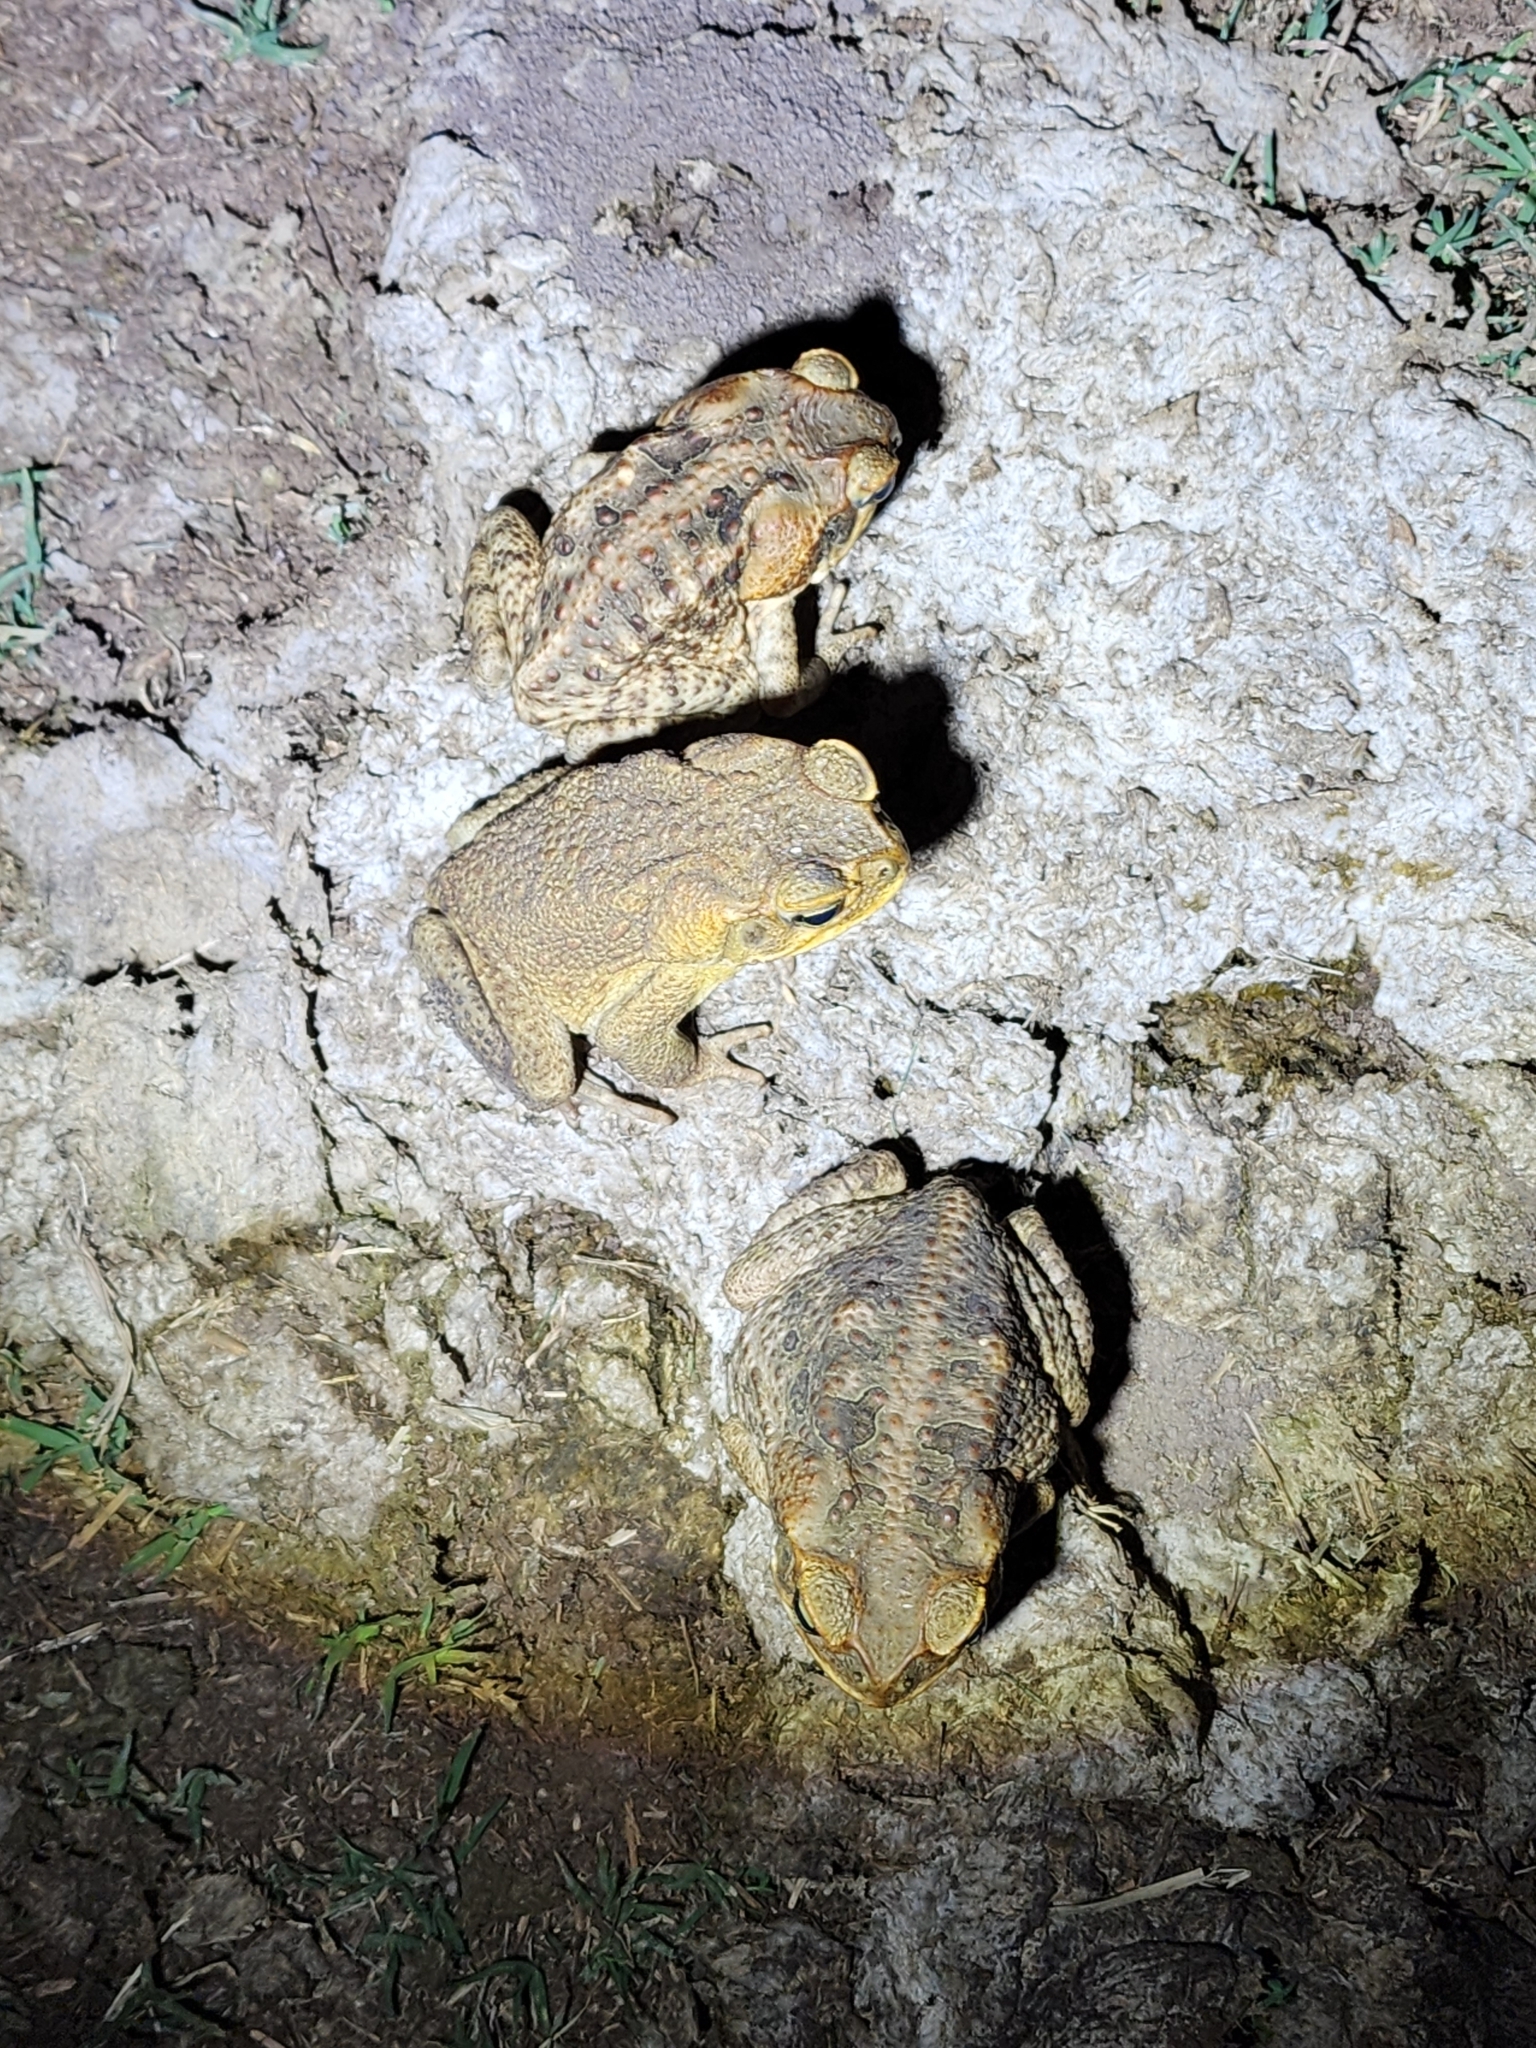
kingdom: Animalia
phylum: Chordata
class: Amphibia
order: Anura
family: Bufonidae
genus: Rhinella
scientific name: Rhinella marina
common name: Cane toad
